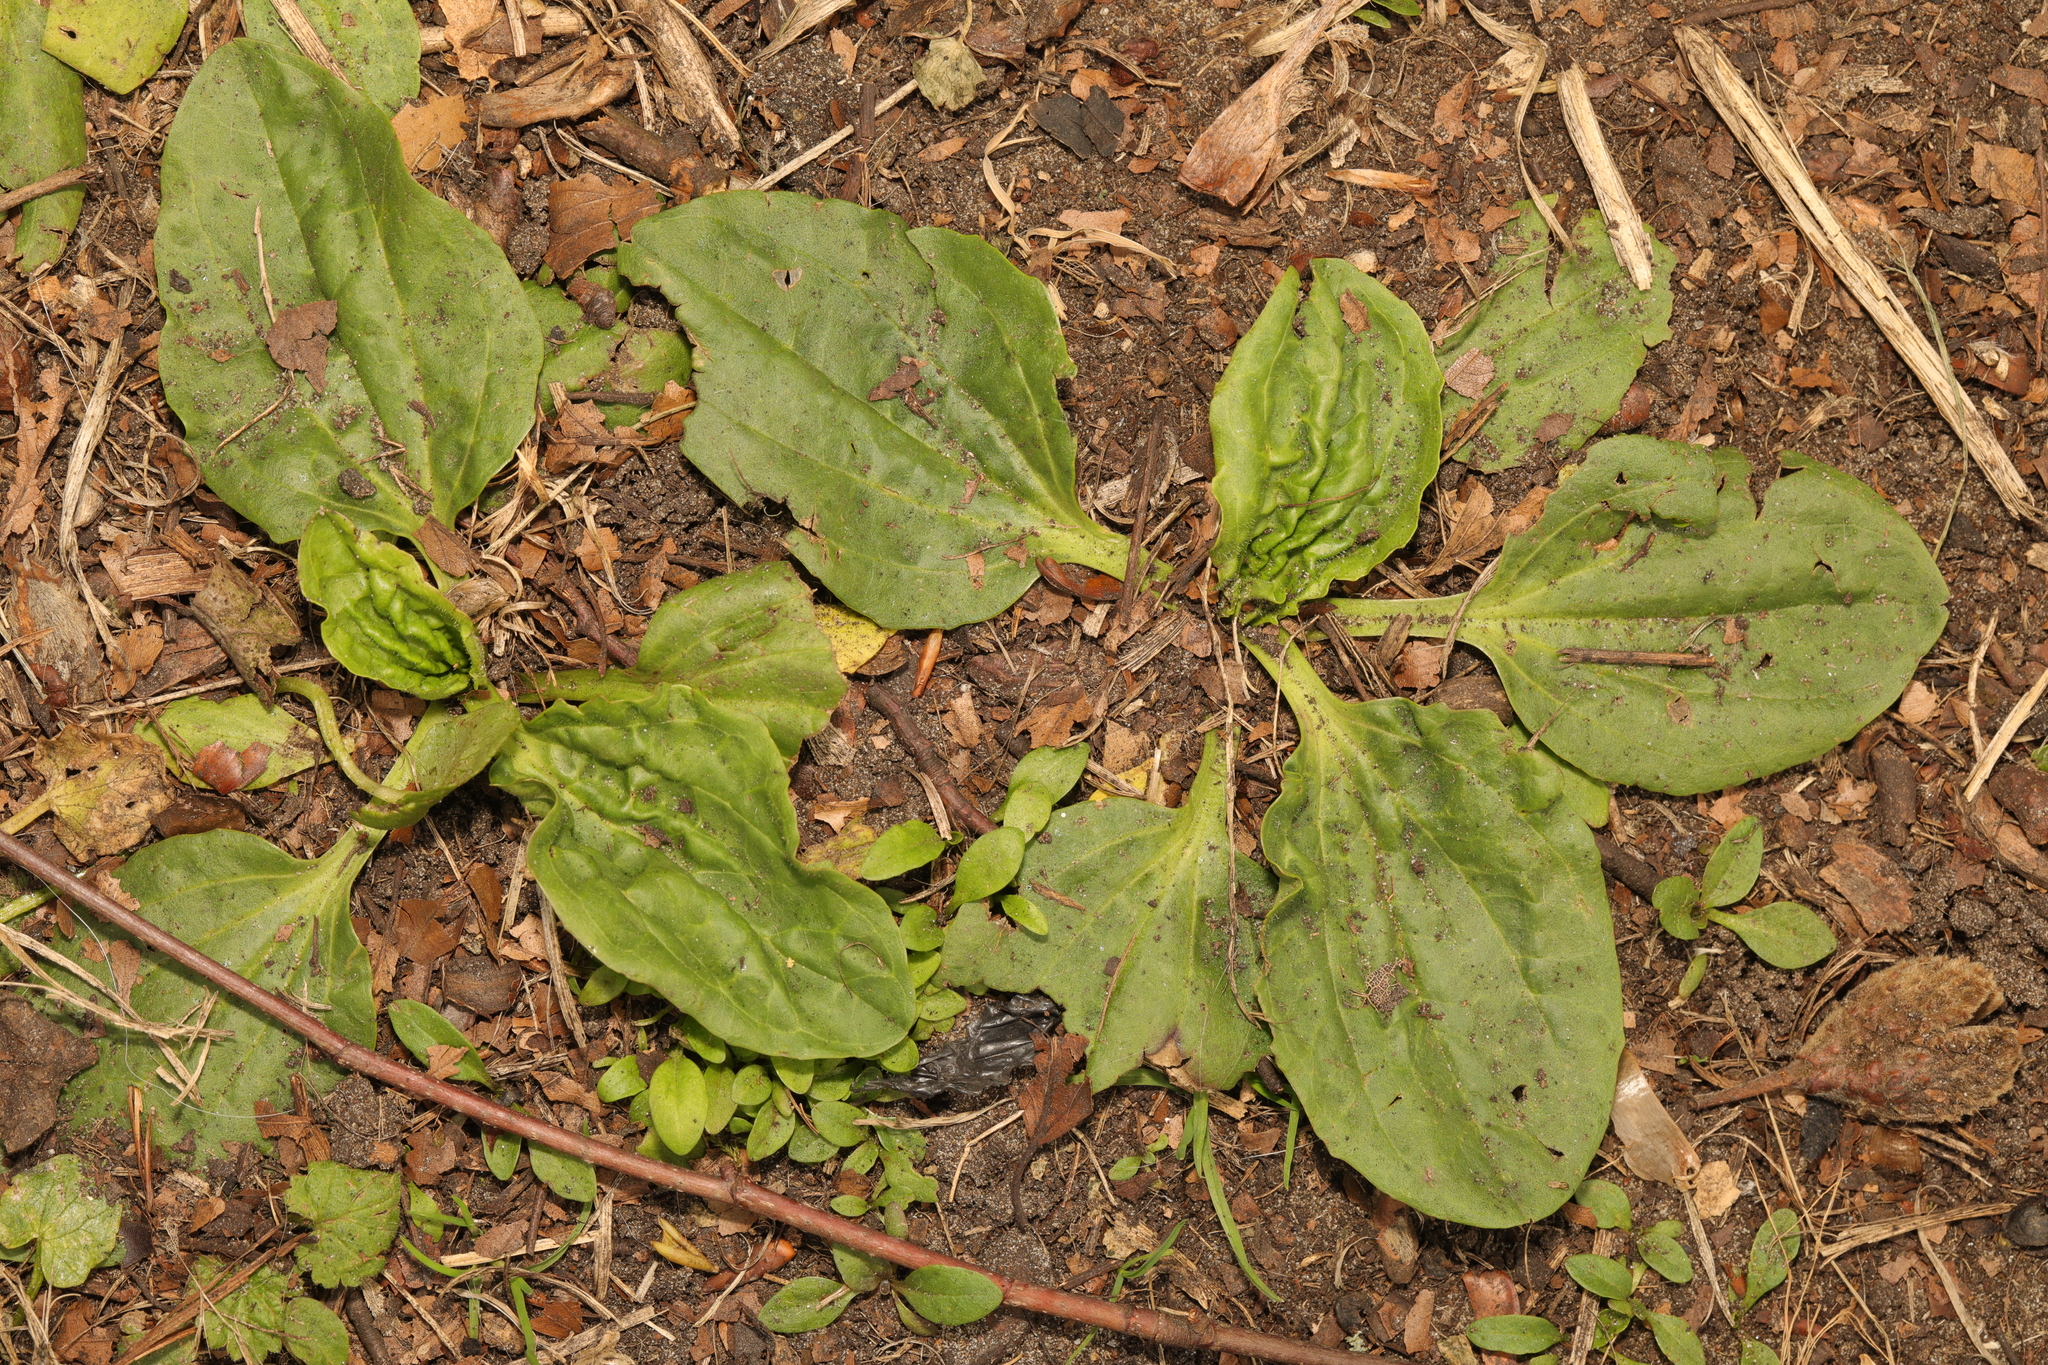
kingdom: Plantae
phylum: Tracheophyta
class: Magnoliopsida
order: Lamiales
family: Plantaginaceae
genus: Plantago
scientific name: Plantago major
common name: Common plantain
